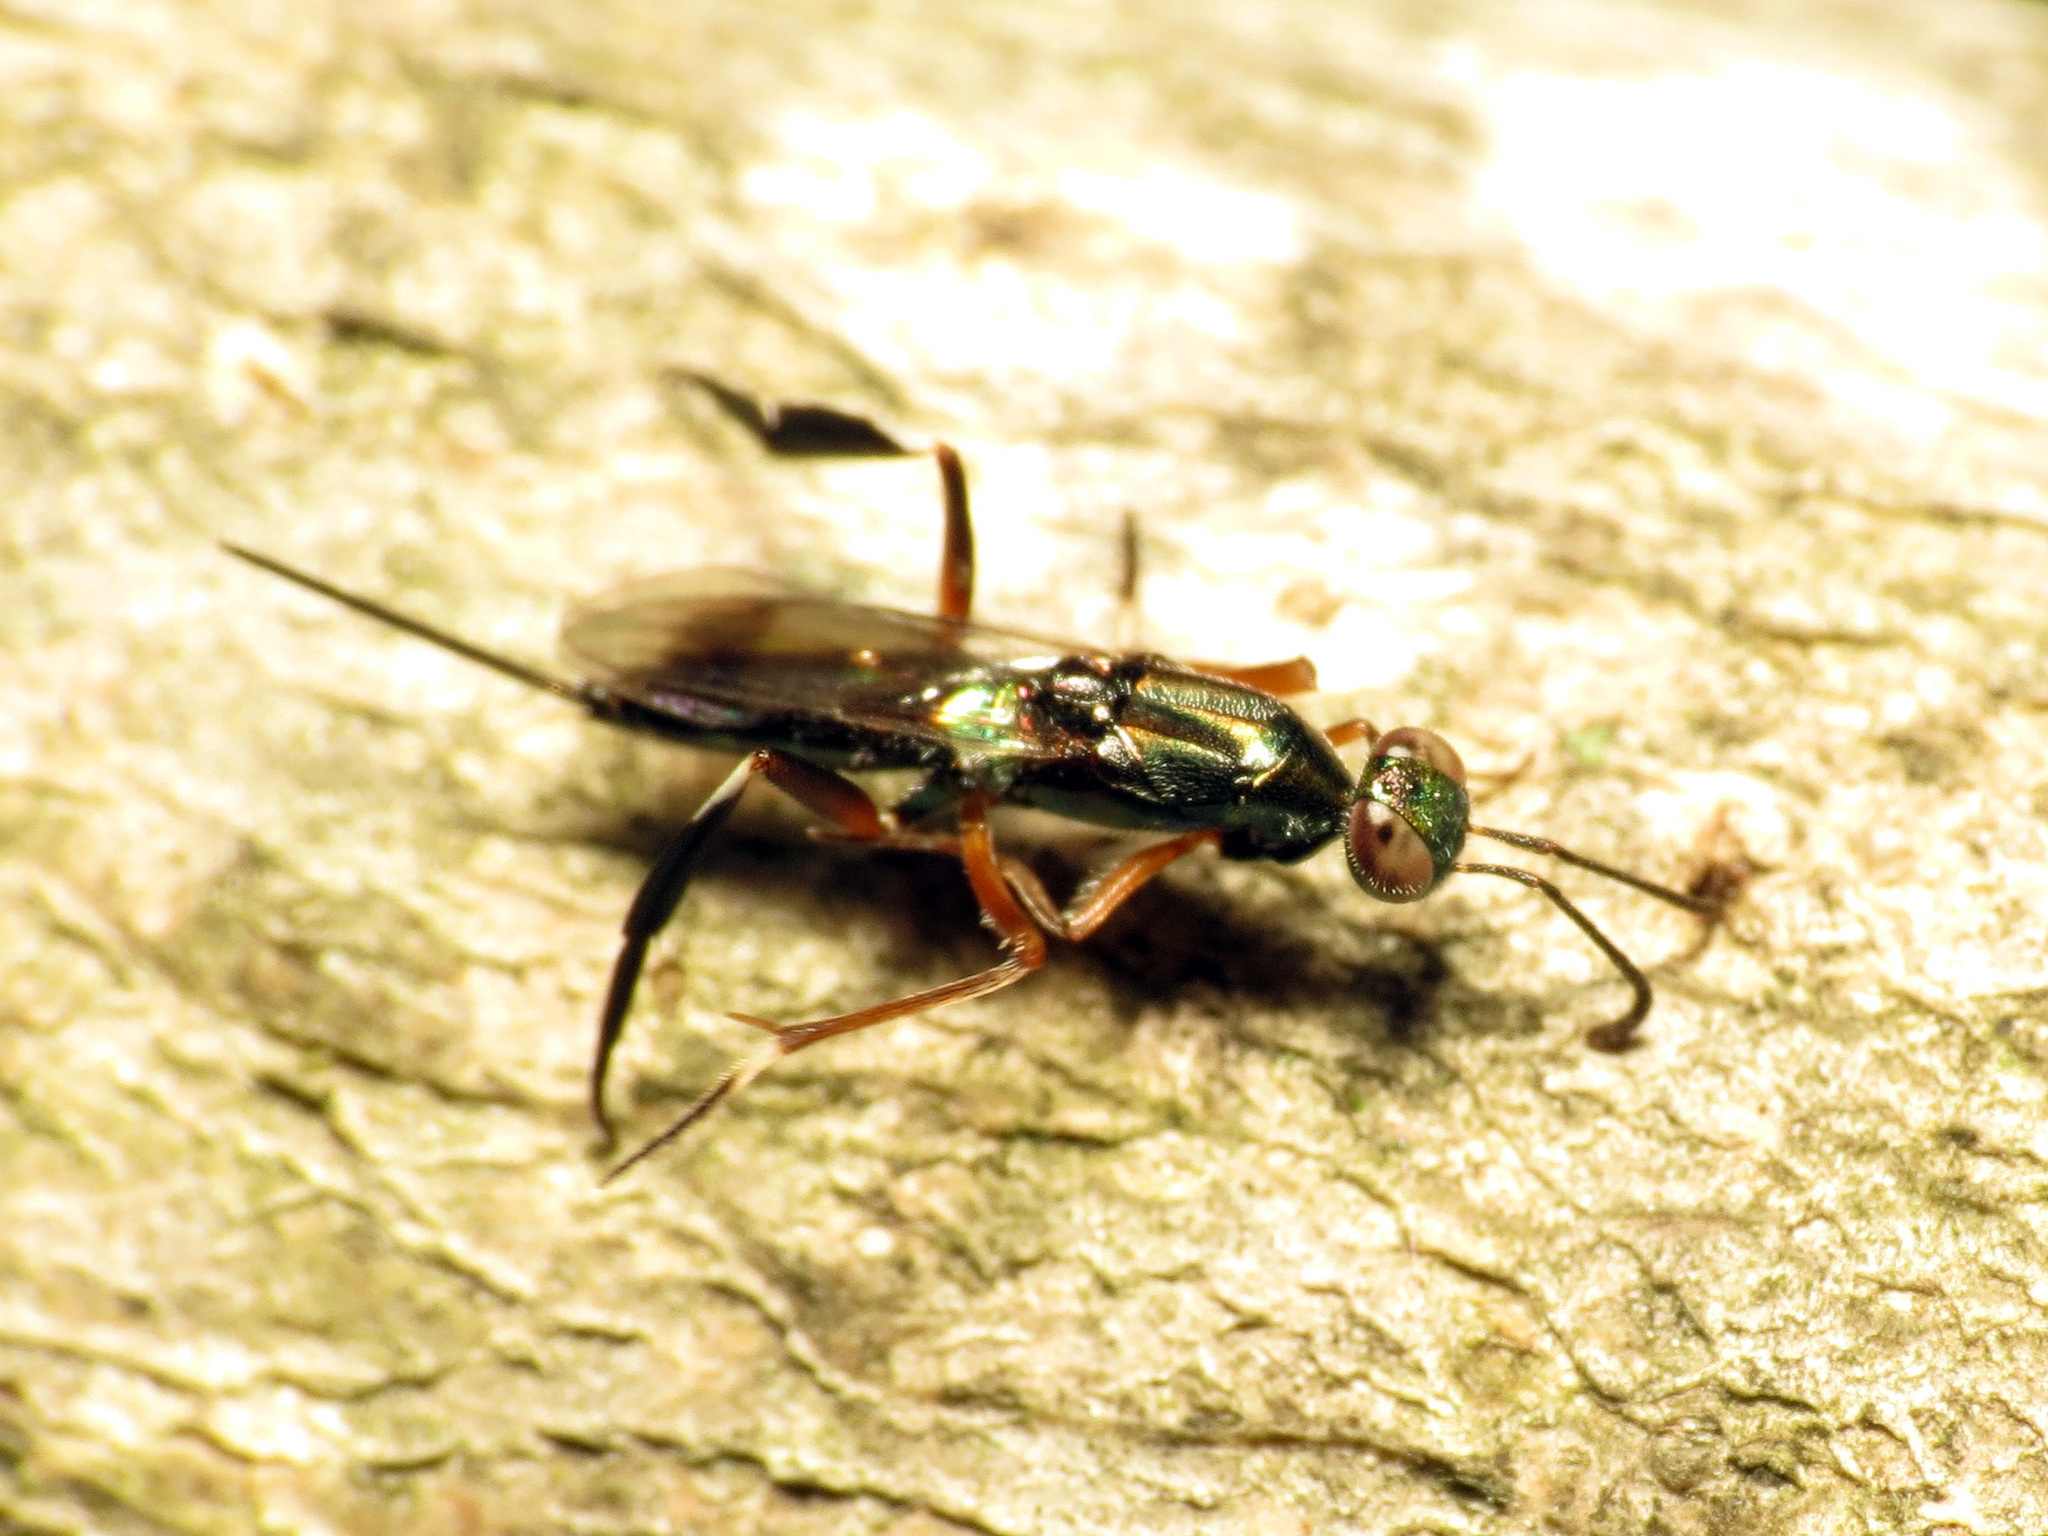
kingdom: Animalia
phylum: Arthropoda
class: Insecta
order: Hymenoptera
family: Eupelmidae
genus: Metapelma
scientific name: Metapelma spectabile
